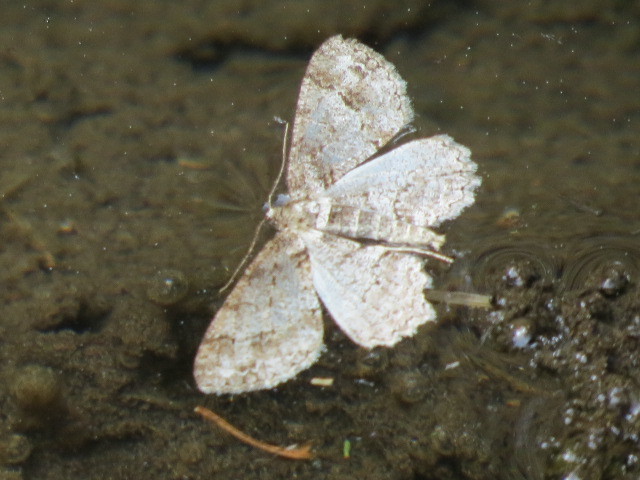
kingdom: Animalia
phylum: Arthropoda
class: Insecta
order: Lepidoptera
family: Geometridae
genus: Paradarisa
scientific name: Paradarisa consonaria
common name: Square spot
